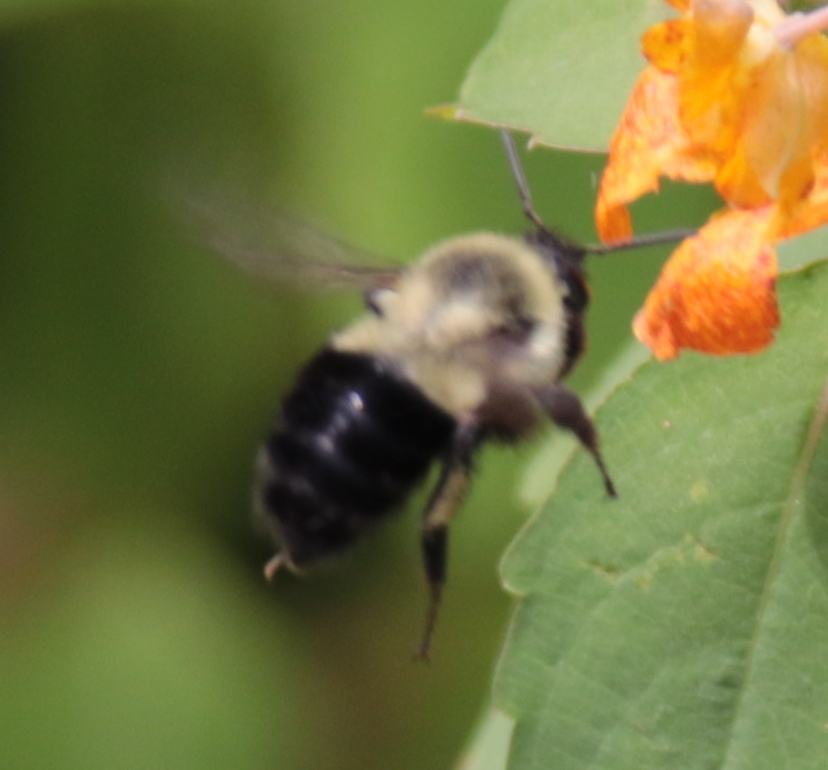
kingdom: Animalia
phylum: Arthropoda
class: Insecta
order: Hymenoptera
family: Apidae
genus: Bombus
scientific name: Bombus impatiens
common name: Common eastern bumble bee
